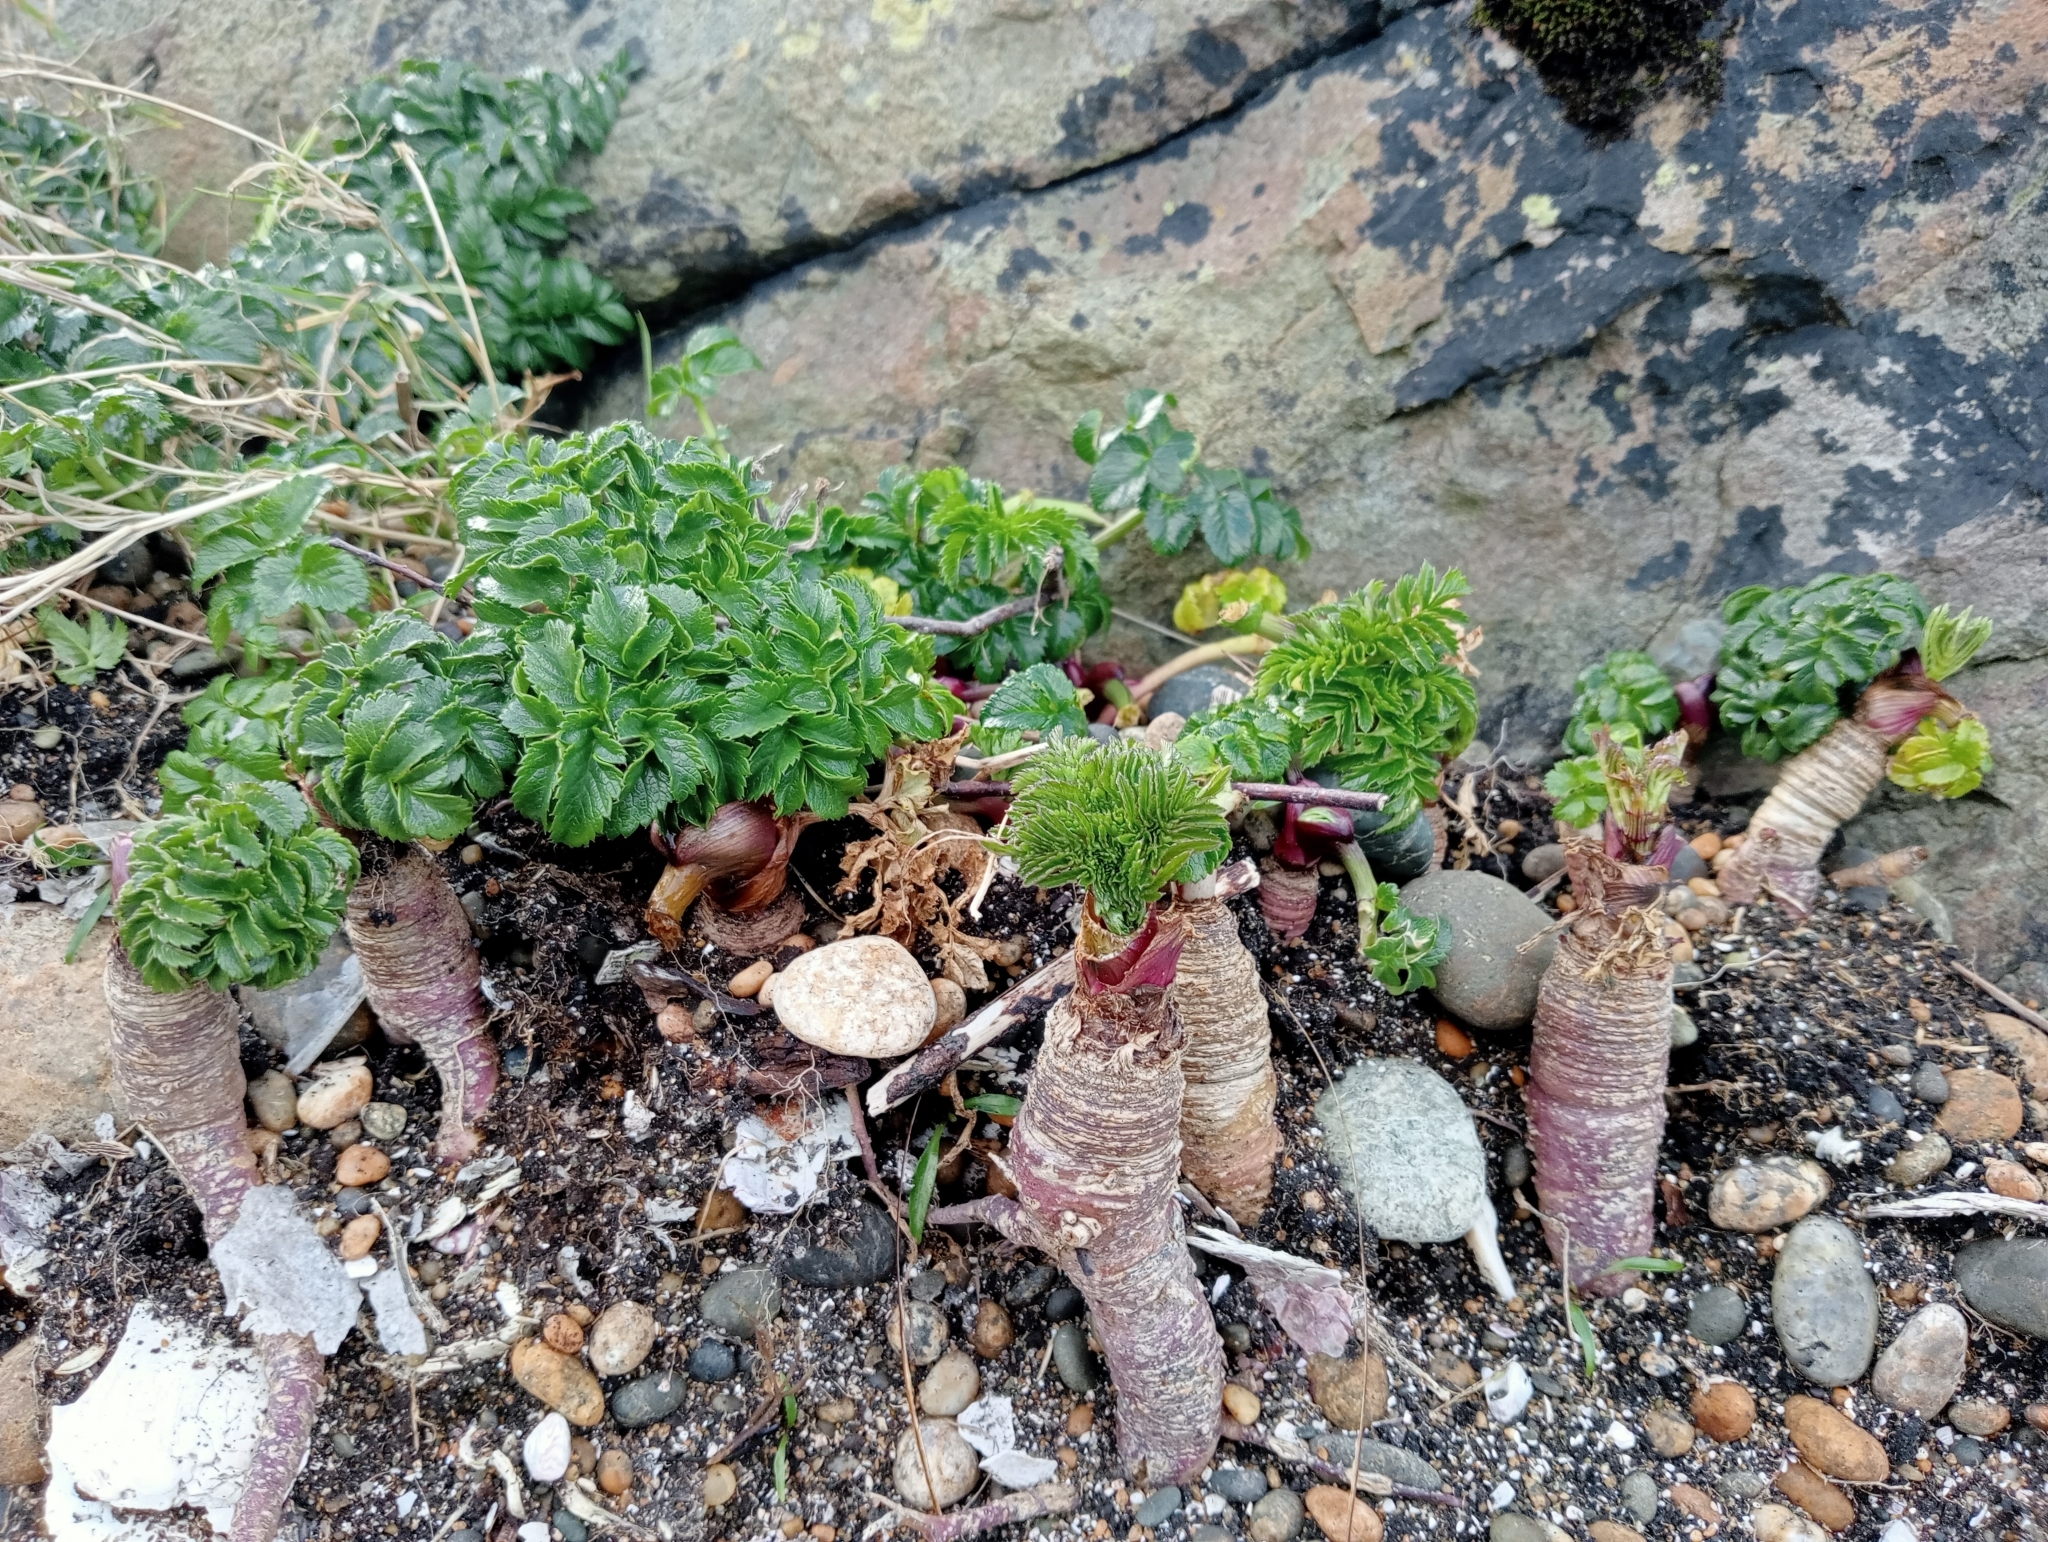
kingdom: Plantae
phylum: Tracheophyta
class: Magnoliopsida
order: Apiales
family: Apiaceae
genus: Angelica
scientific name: Angelica pachycarpa
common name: Portuguese angelica
